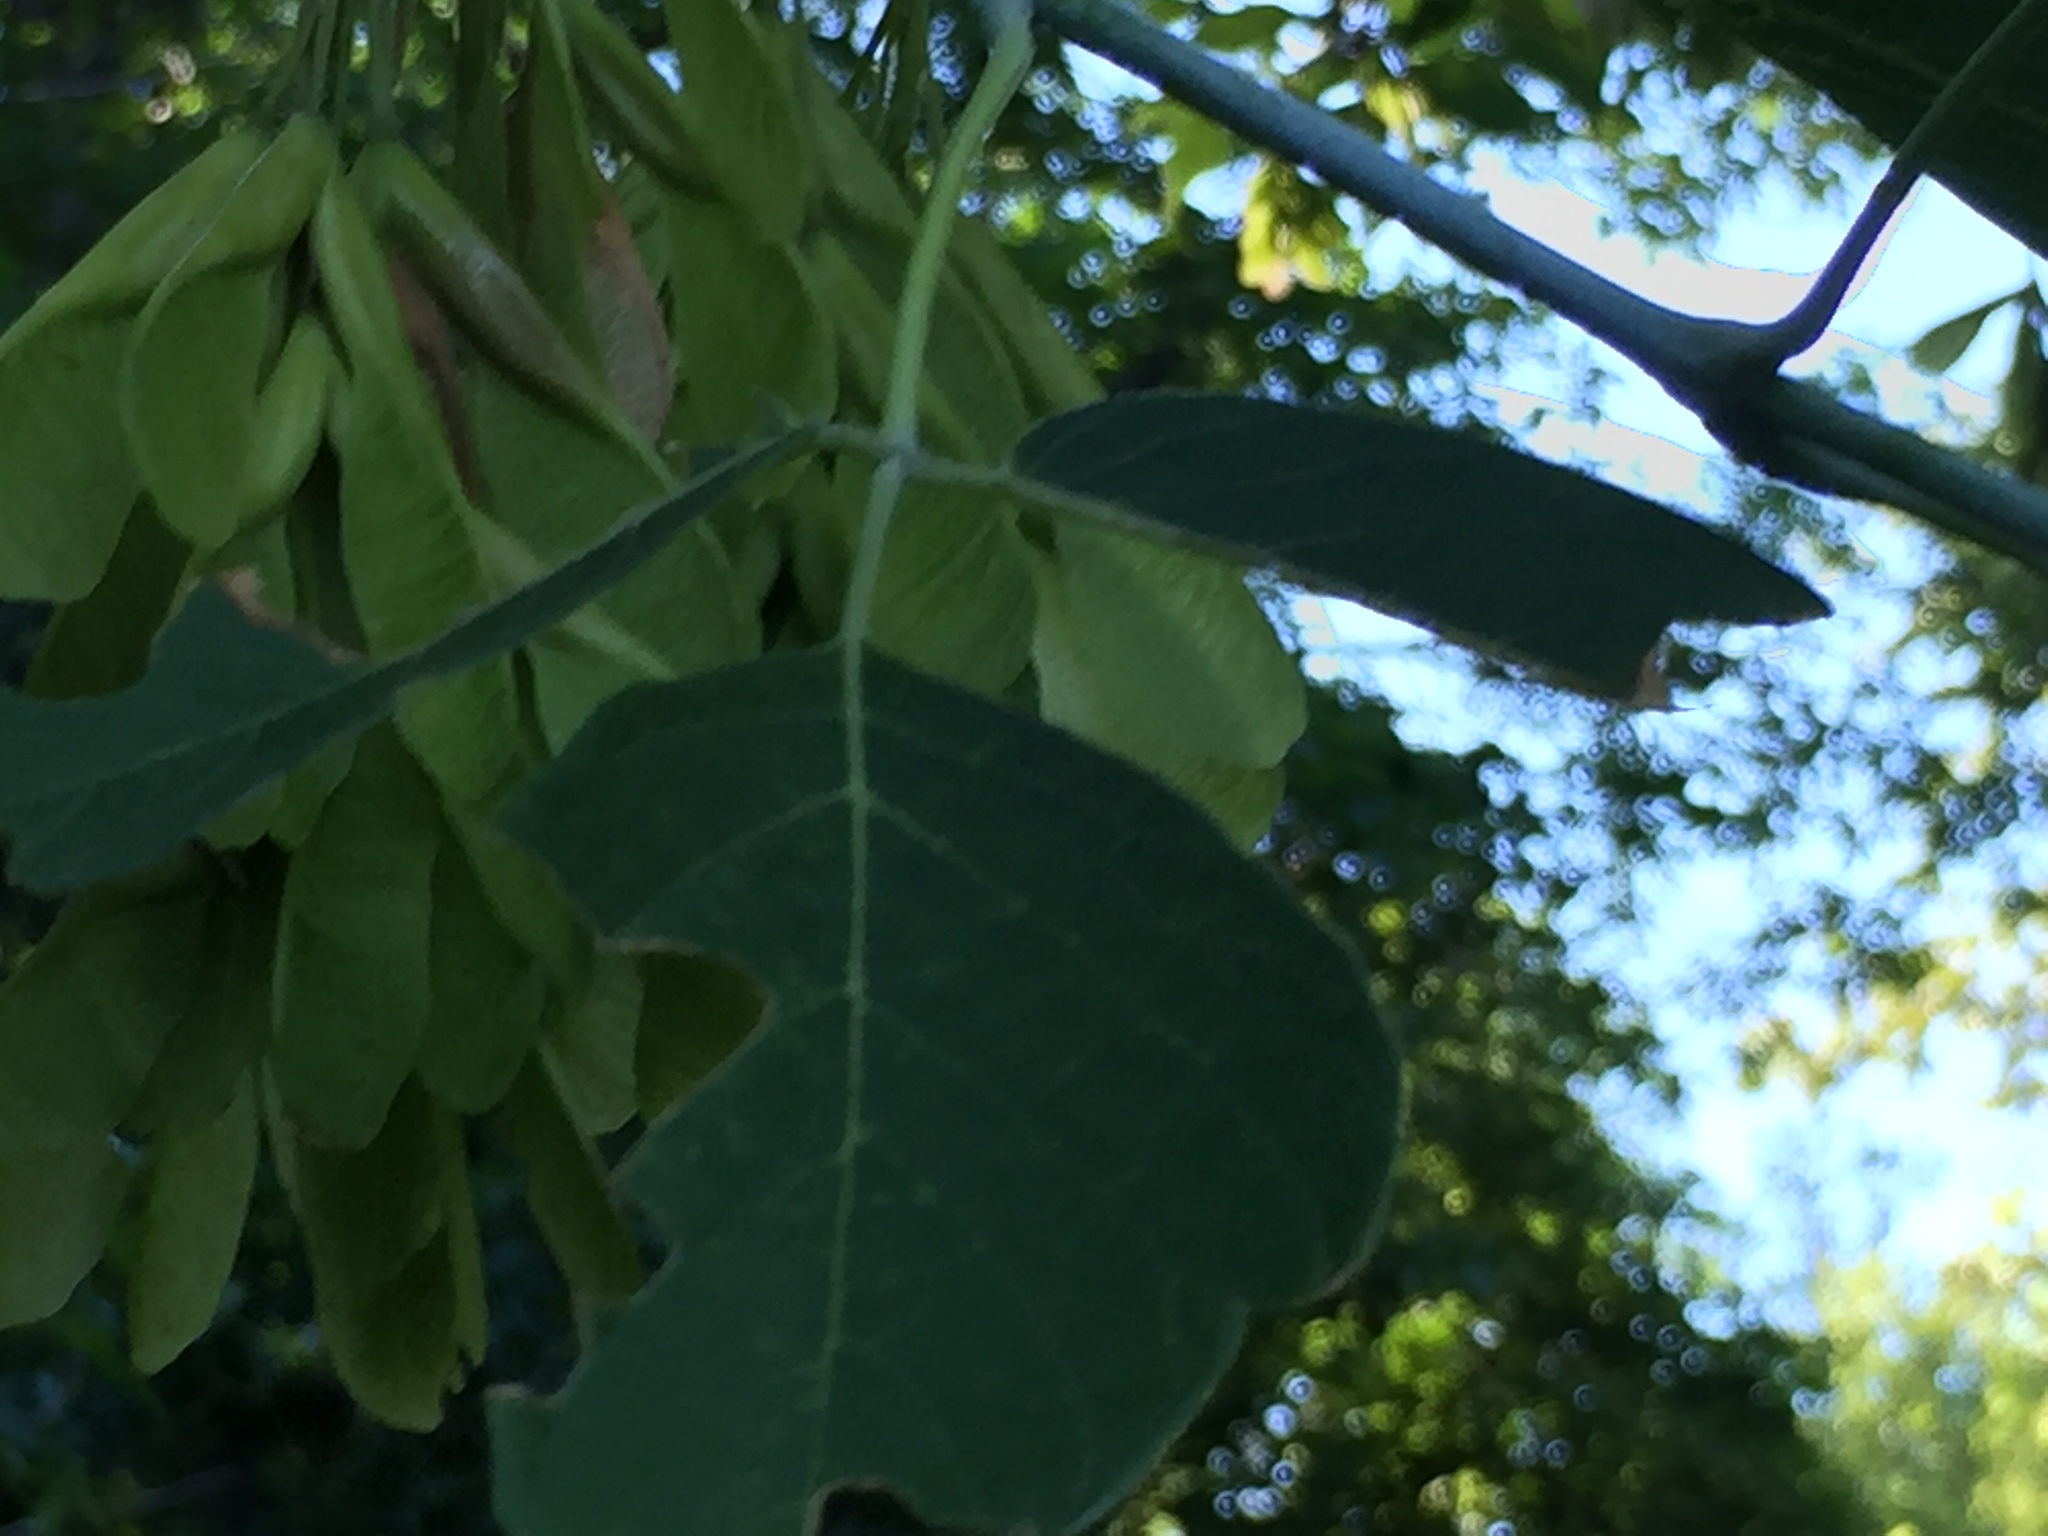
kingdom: Plantae
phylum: Tracheophyta
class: Magnoliopsida
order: Sapindales
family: Sapindaceae
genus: Acer
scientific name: Acer negundo
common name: Ashleaf maple
